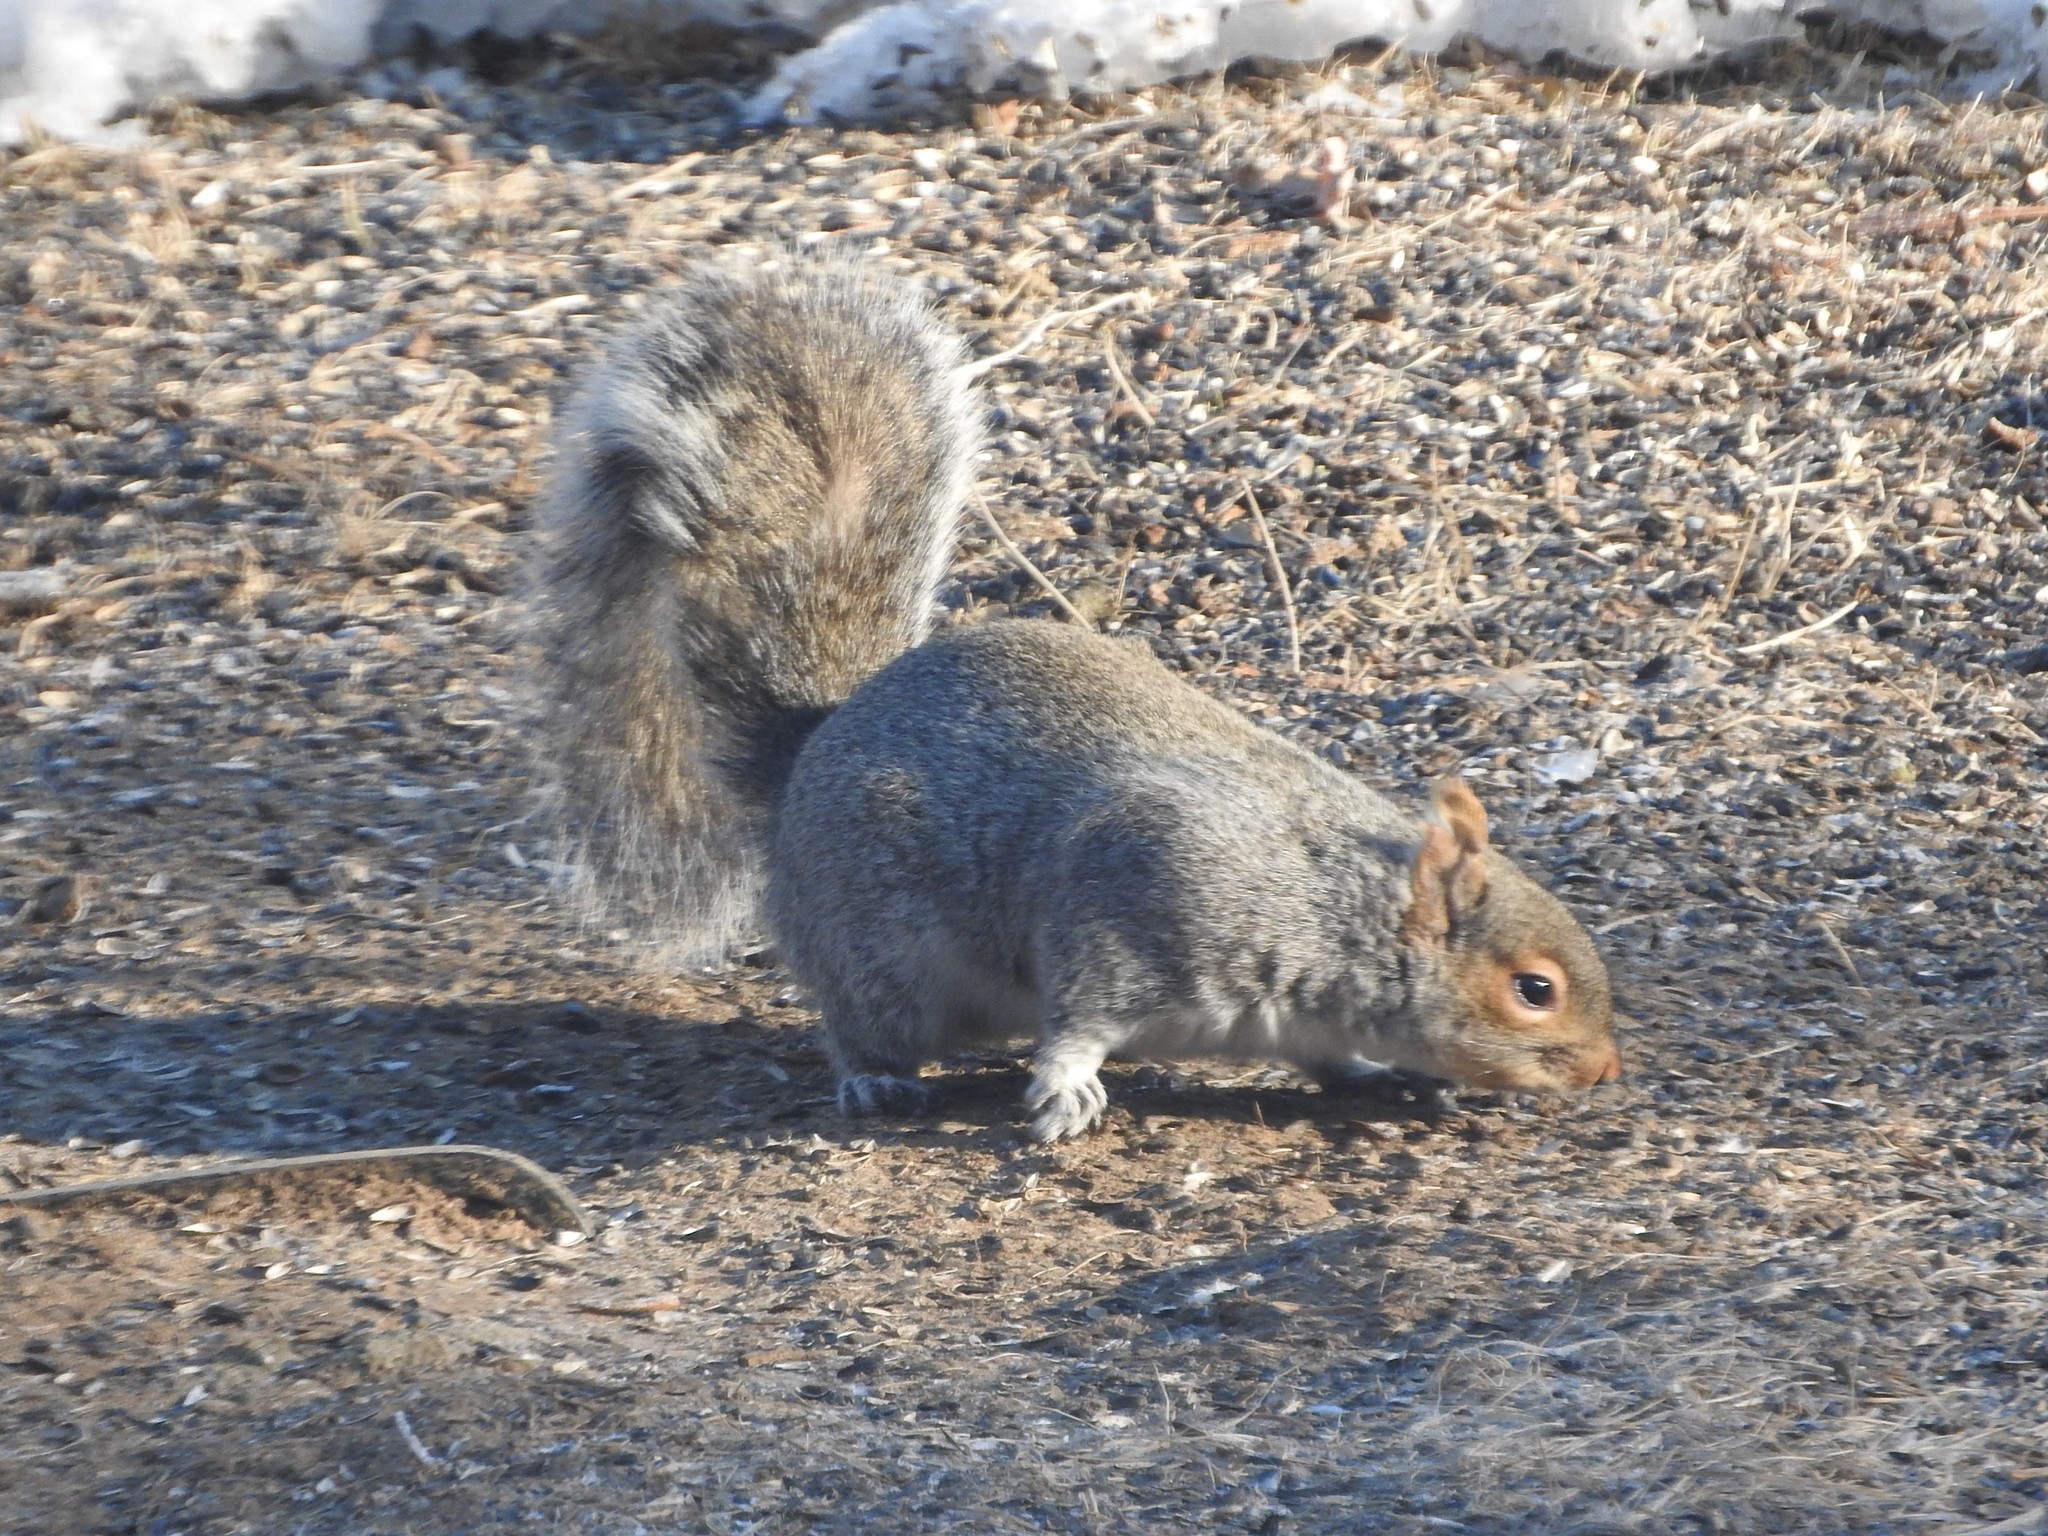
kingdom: Animalia
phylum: Chordata
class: Mammalia
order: Rodentia
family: Sciuridae
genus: Sciurus
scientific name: Sciurus carolinensis
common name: Eastern gray squirrel
